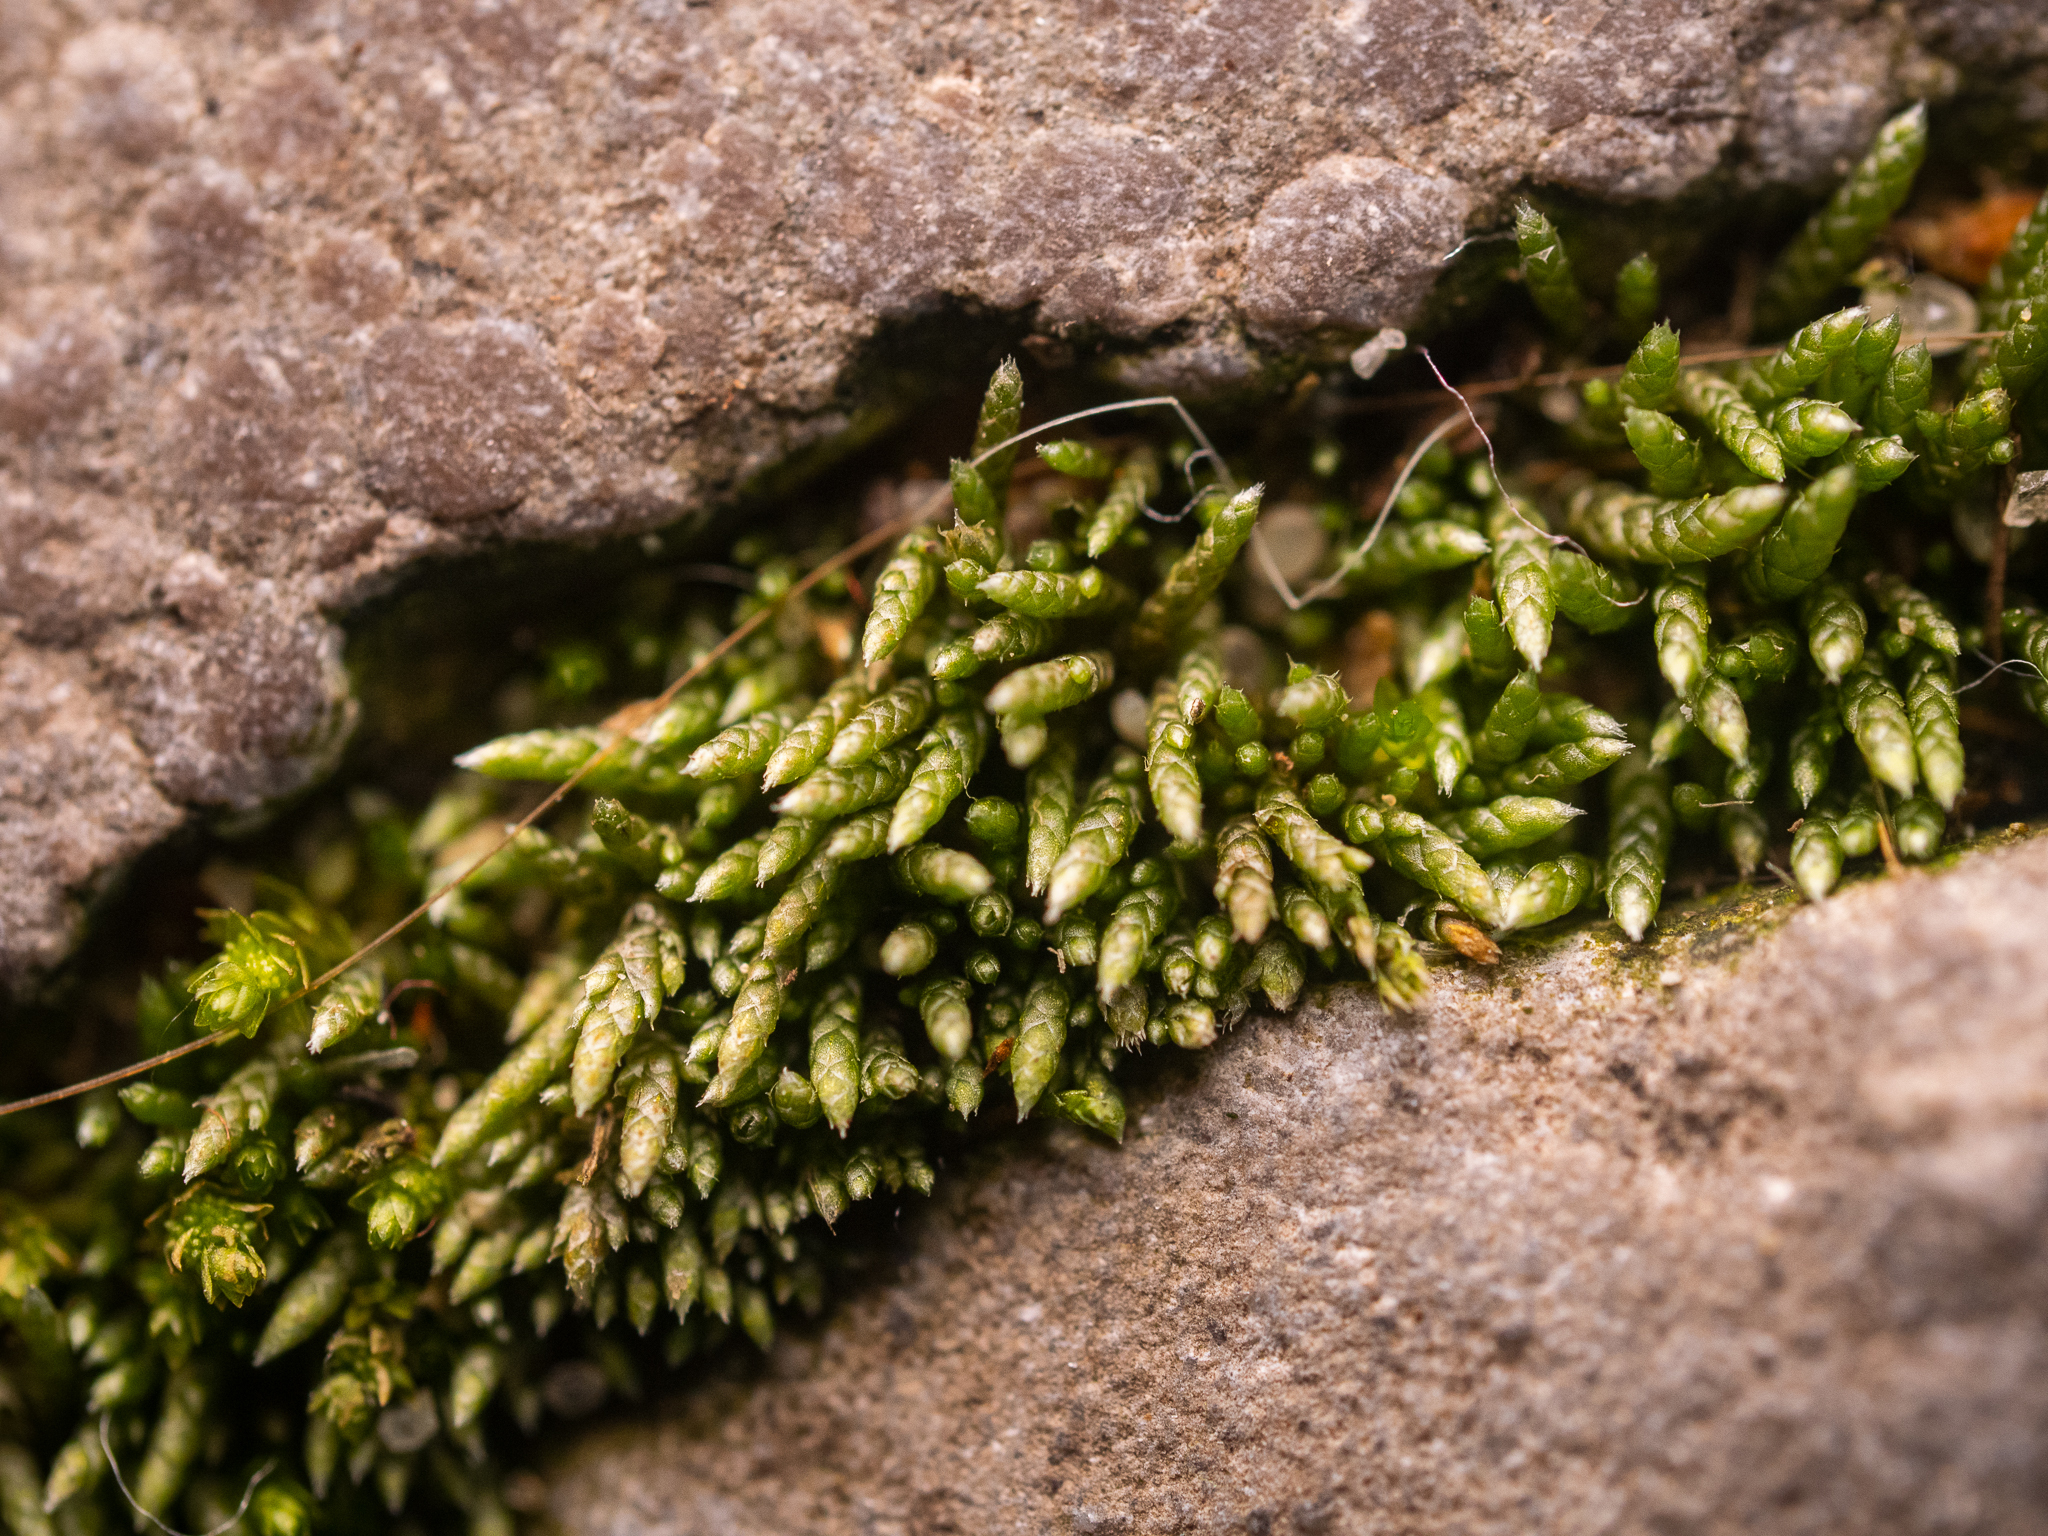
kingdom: Plantae
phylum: Bryophyta
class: Bryopsida
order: Bryales
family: Bryaceae
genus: Bryum
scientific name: Bryum argenteum
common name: Silver-moss
